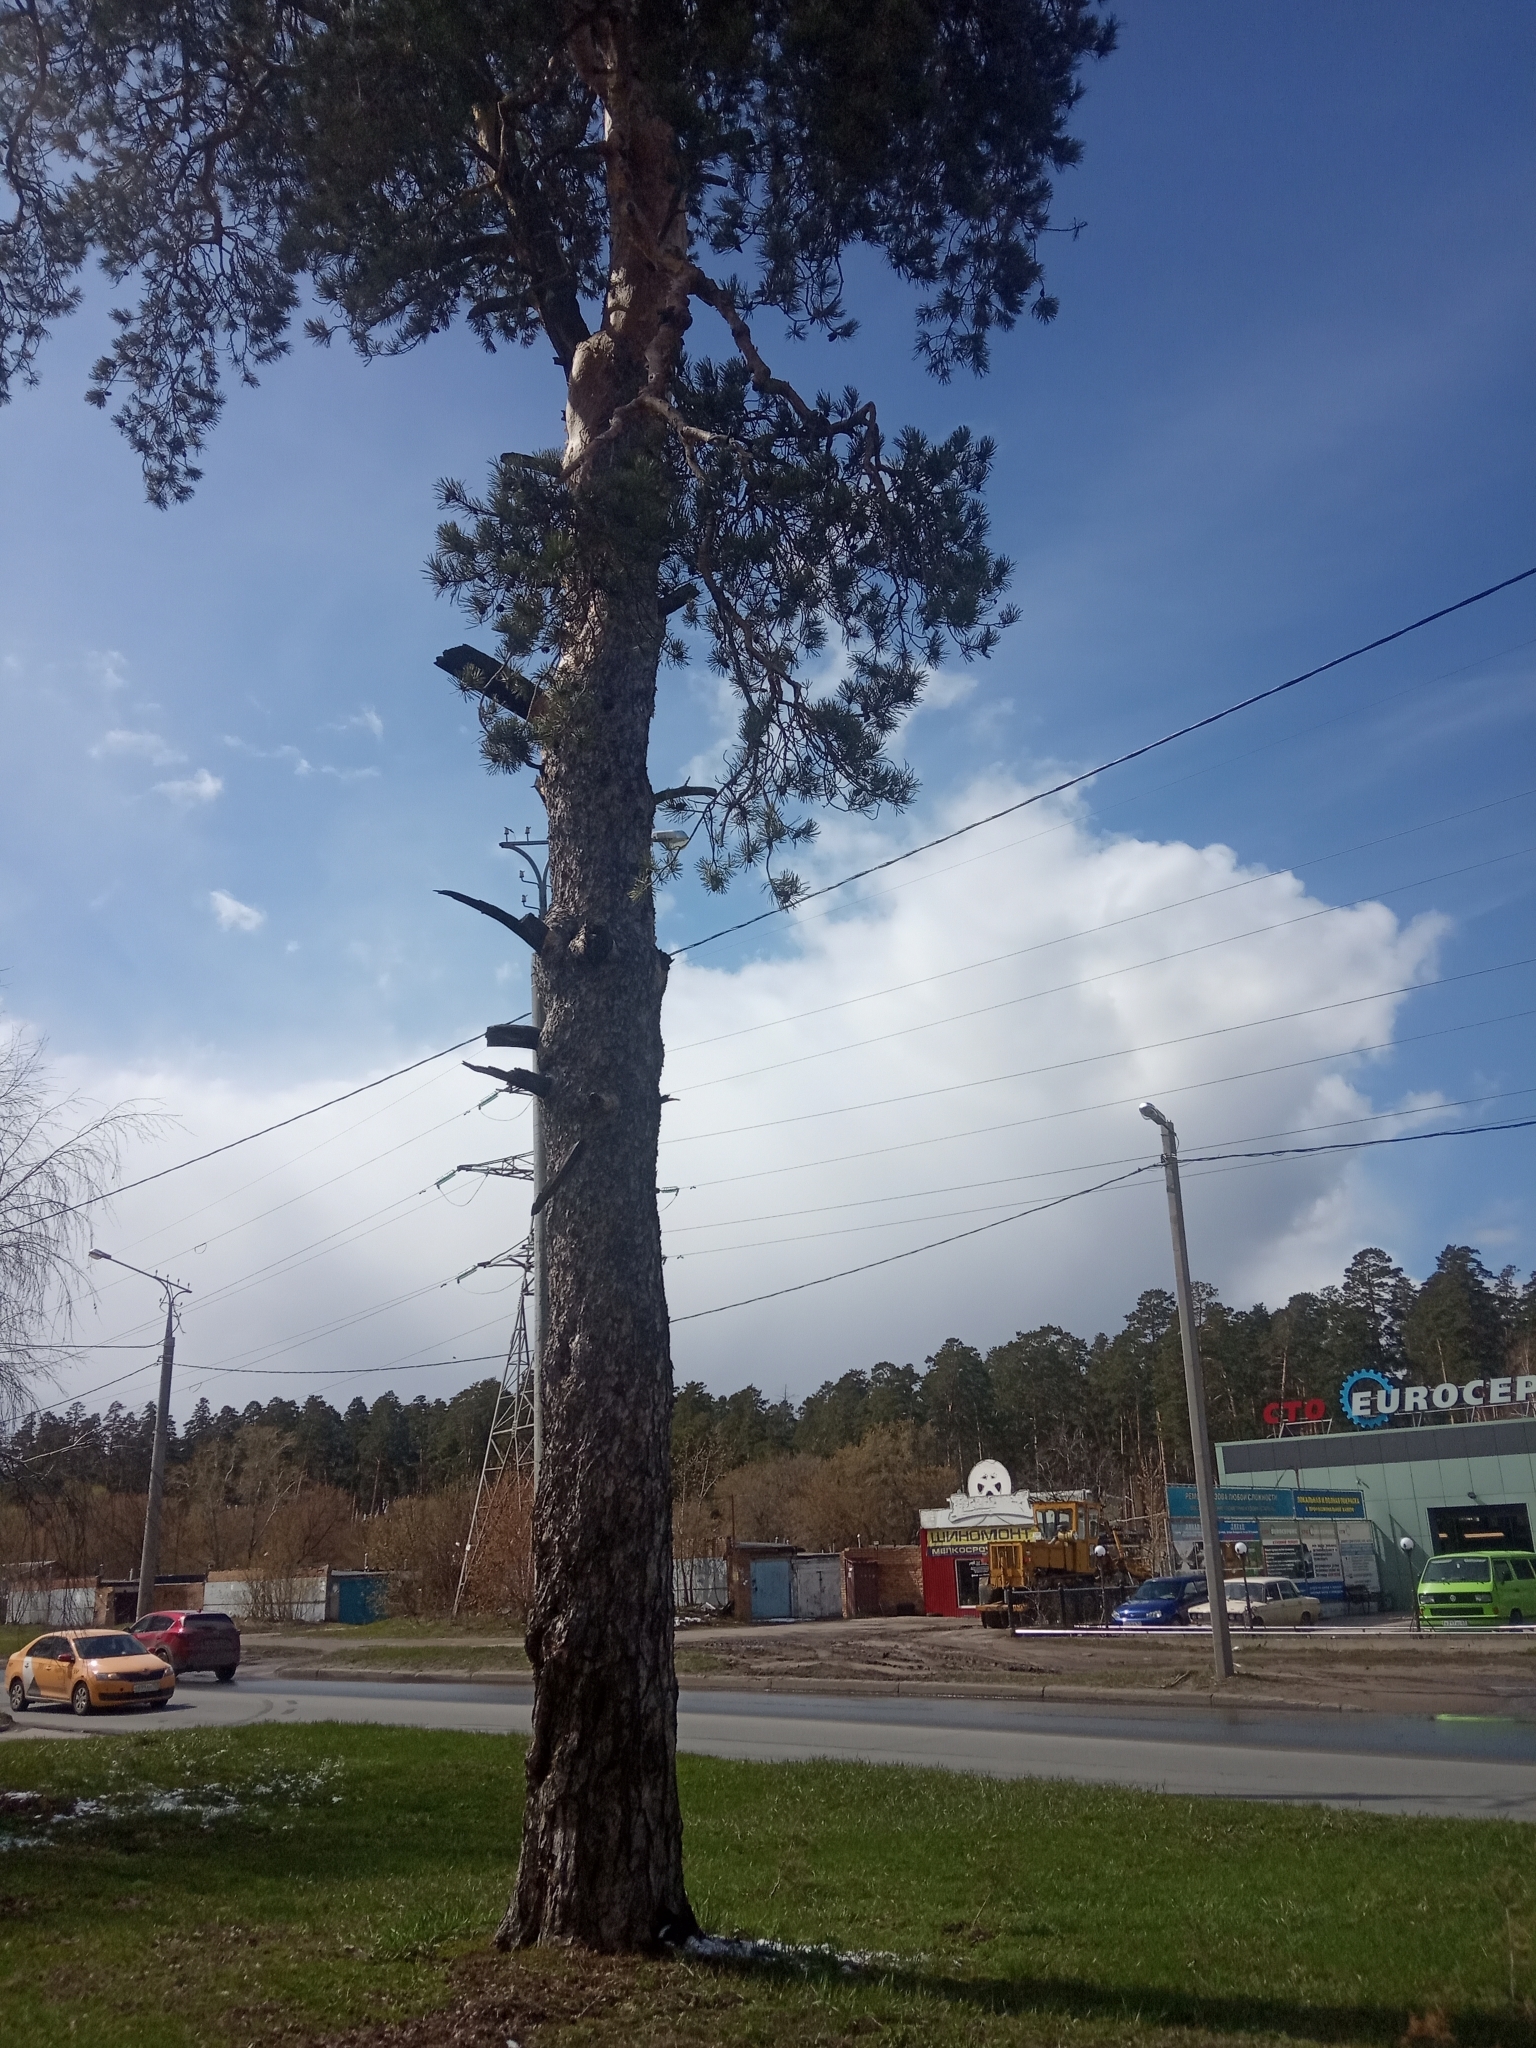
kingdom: Plantae
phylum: Tracheophyta
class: Pinopsida
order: Pinales
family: Pinaceae
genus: Pinus
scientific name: Pinus sylvestris
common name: Scots pine
